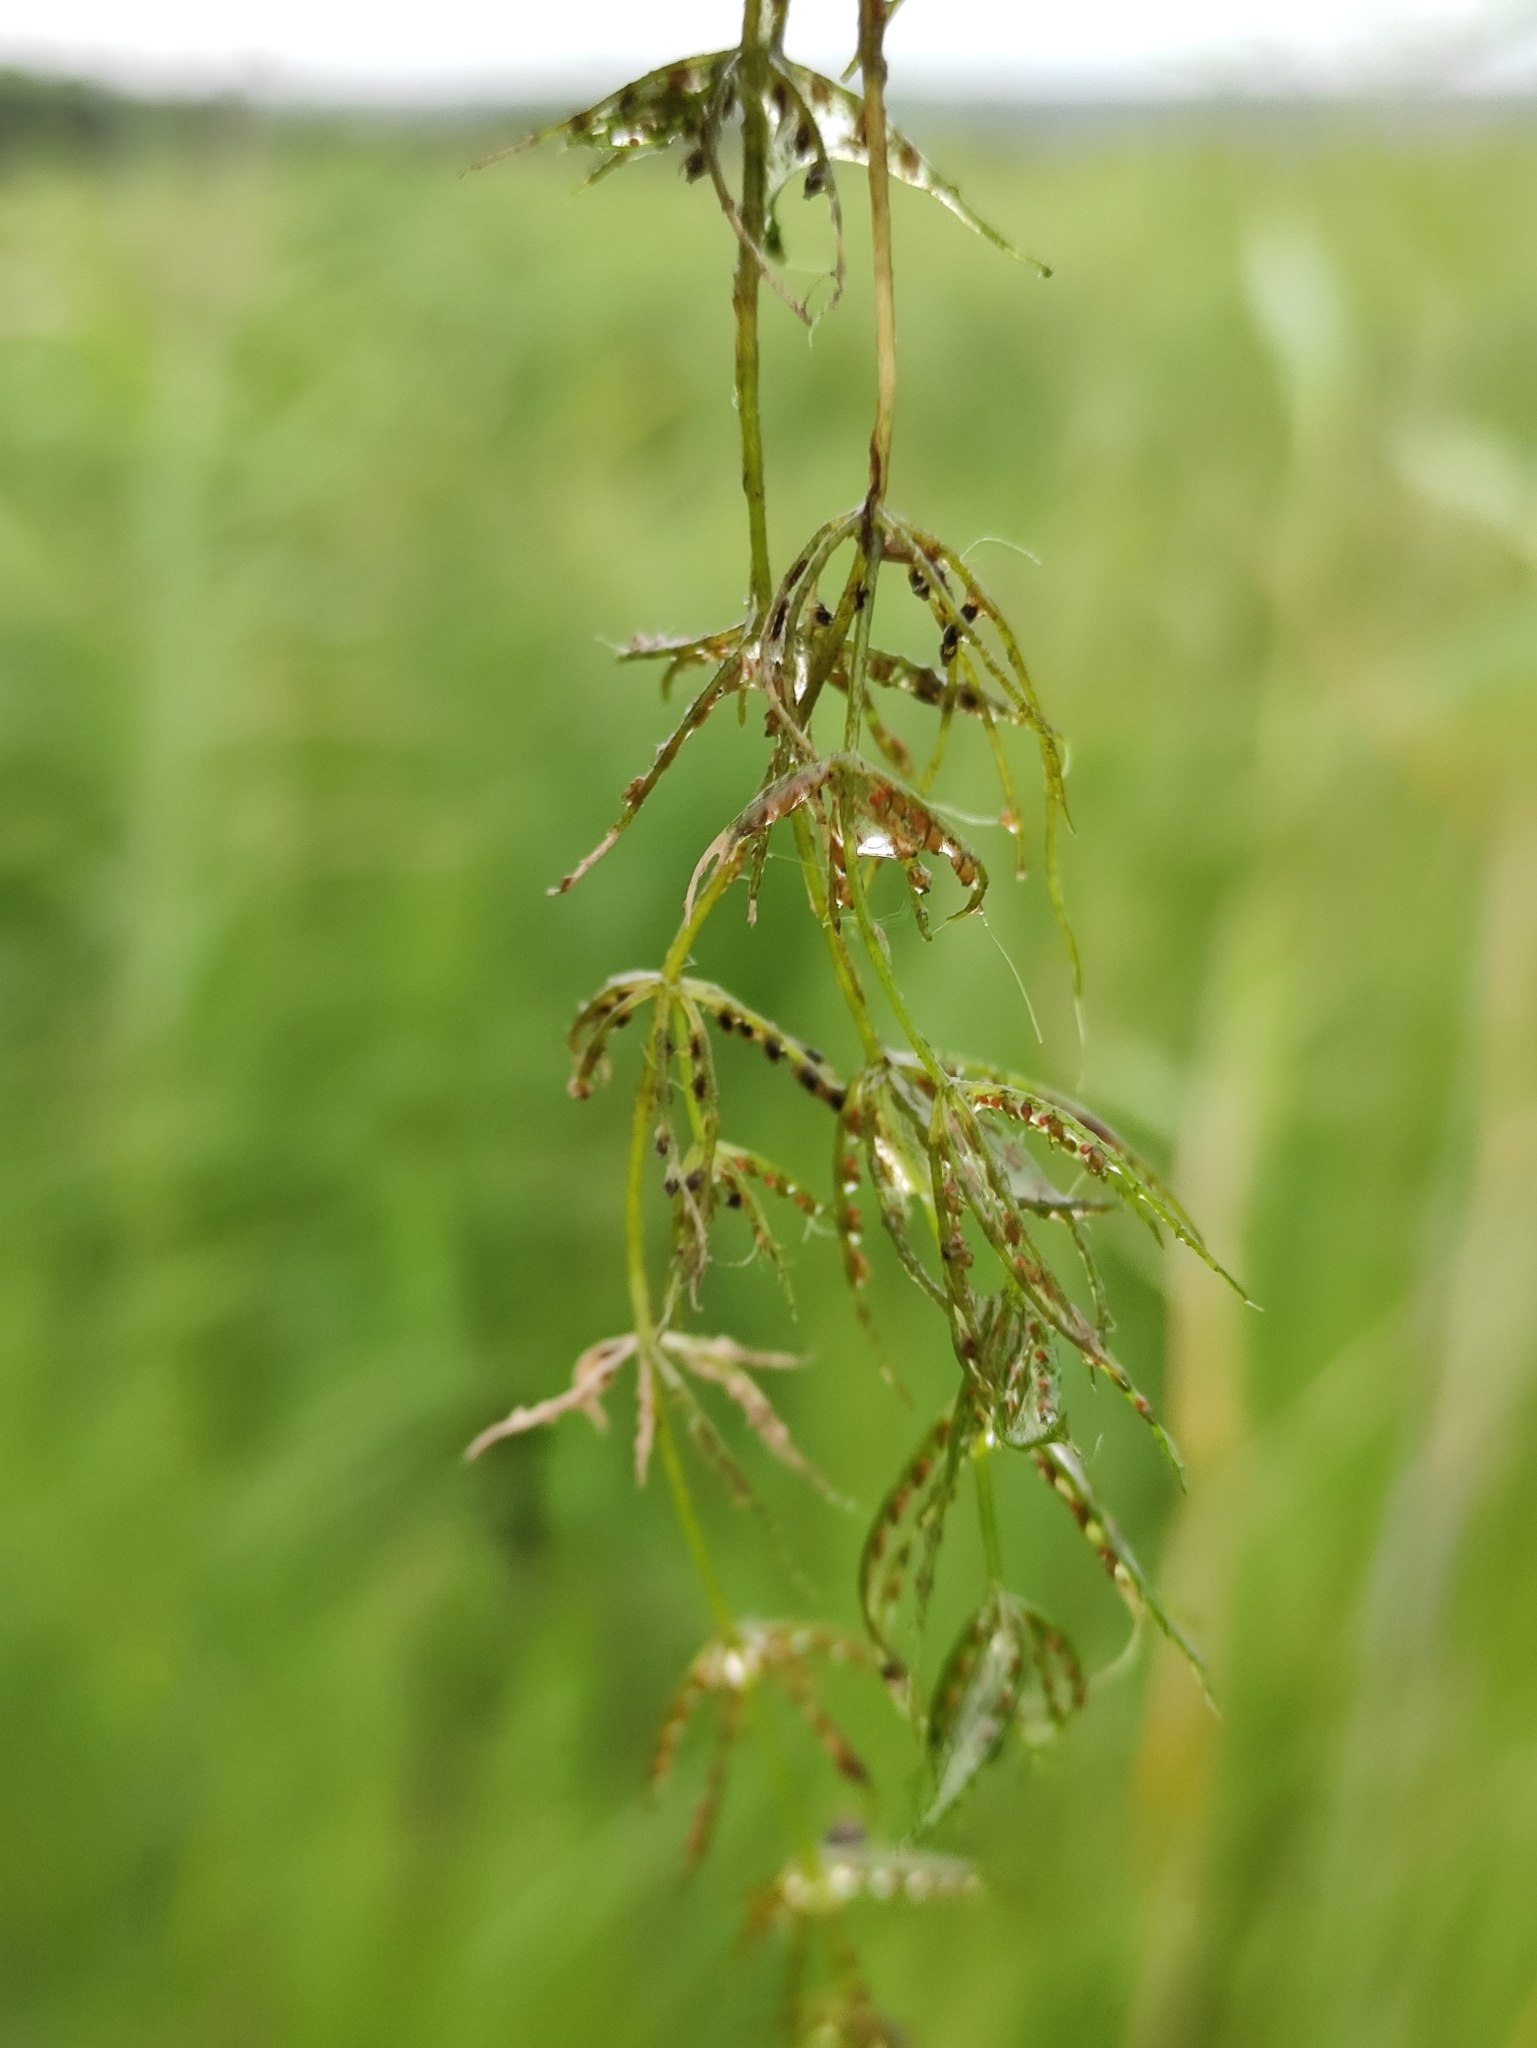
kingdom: Plantae
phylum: Charophyta
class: Charophyceae
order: Charales
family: Characeae
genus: Chara
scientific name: Chara globularis
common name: Fragile stonewort
